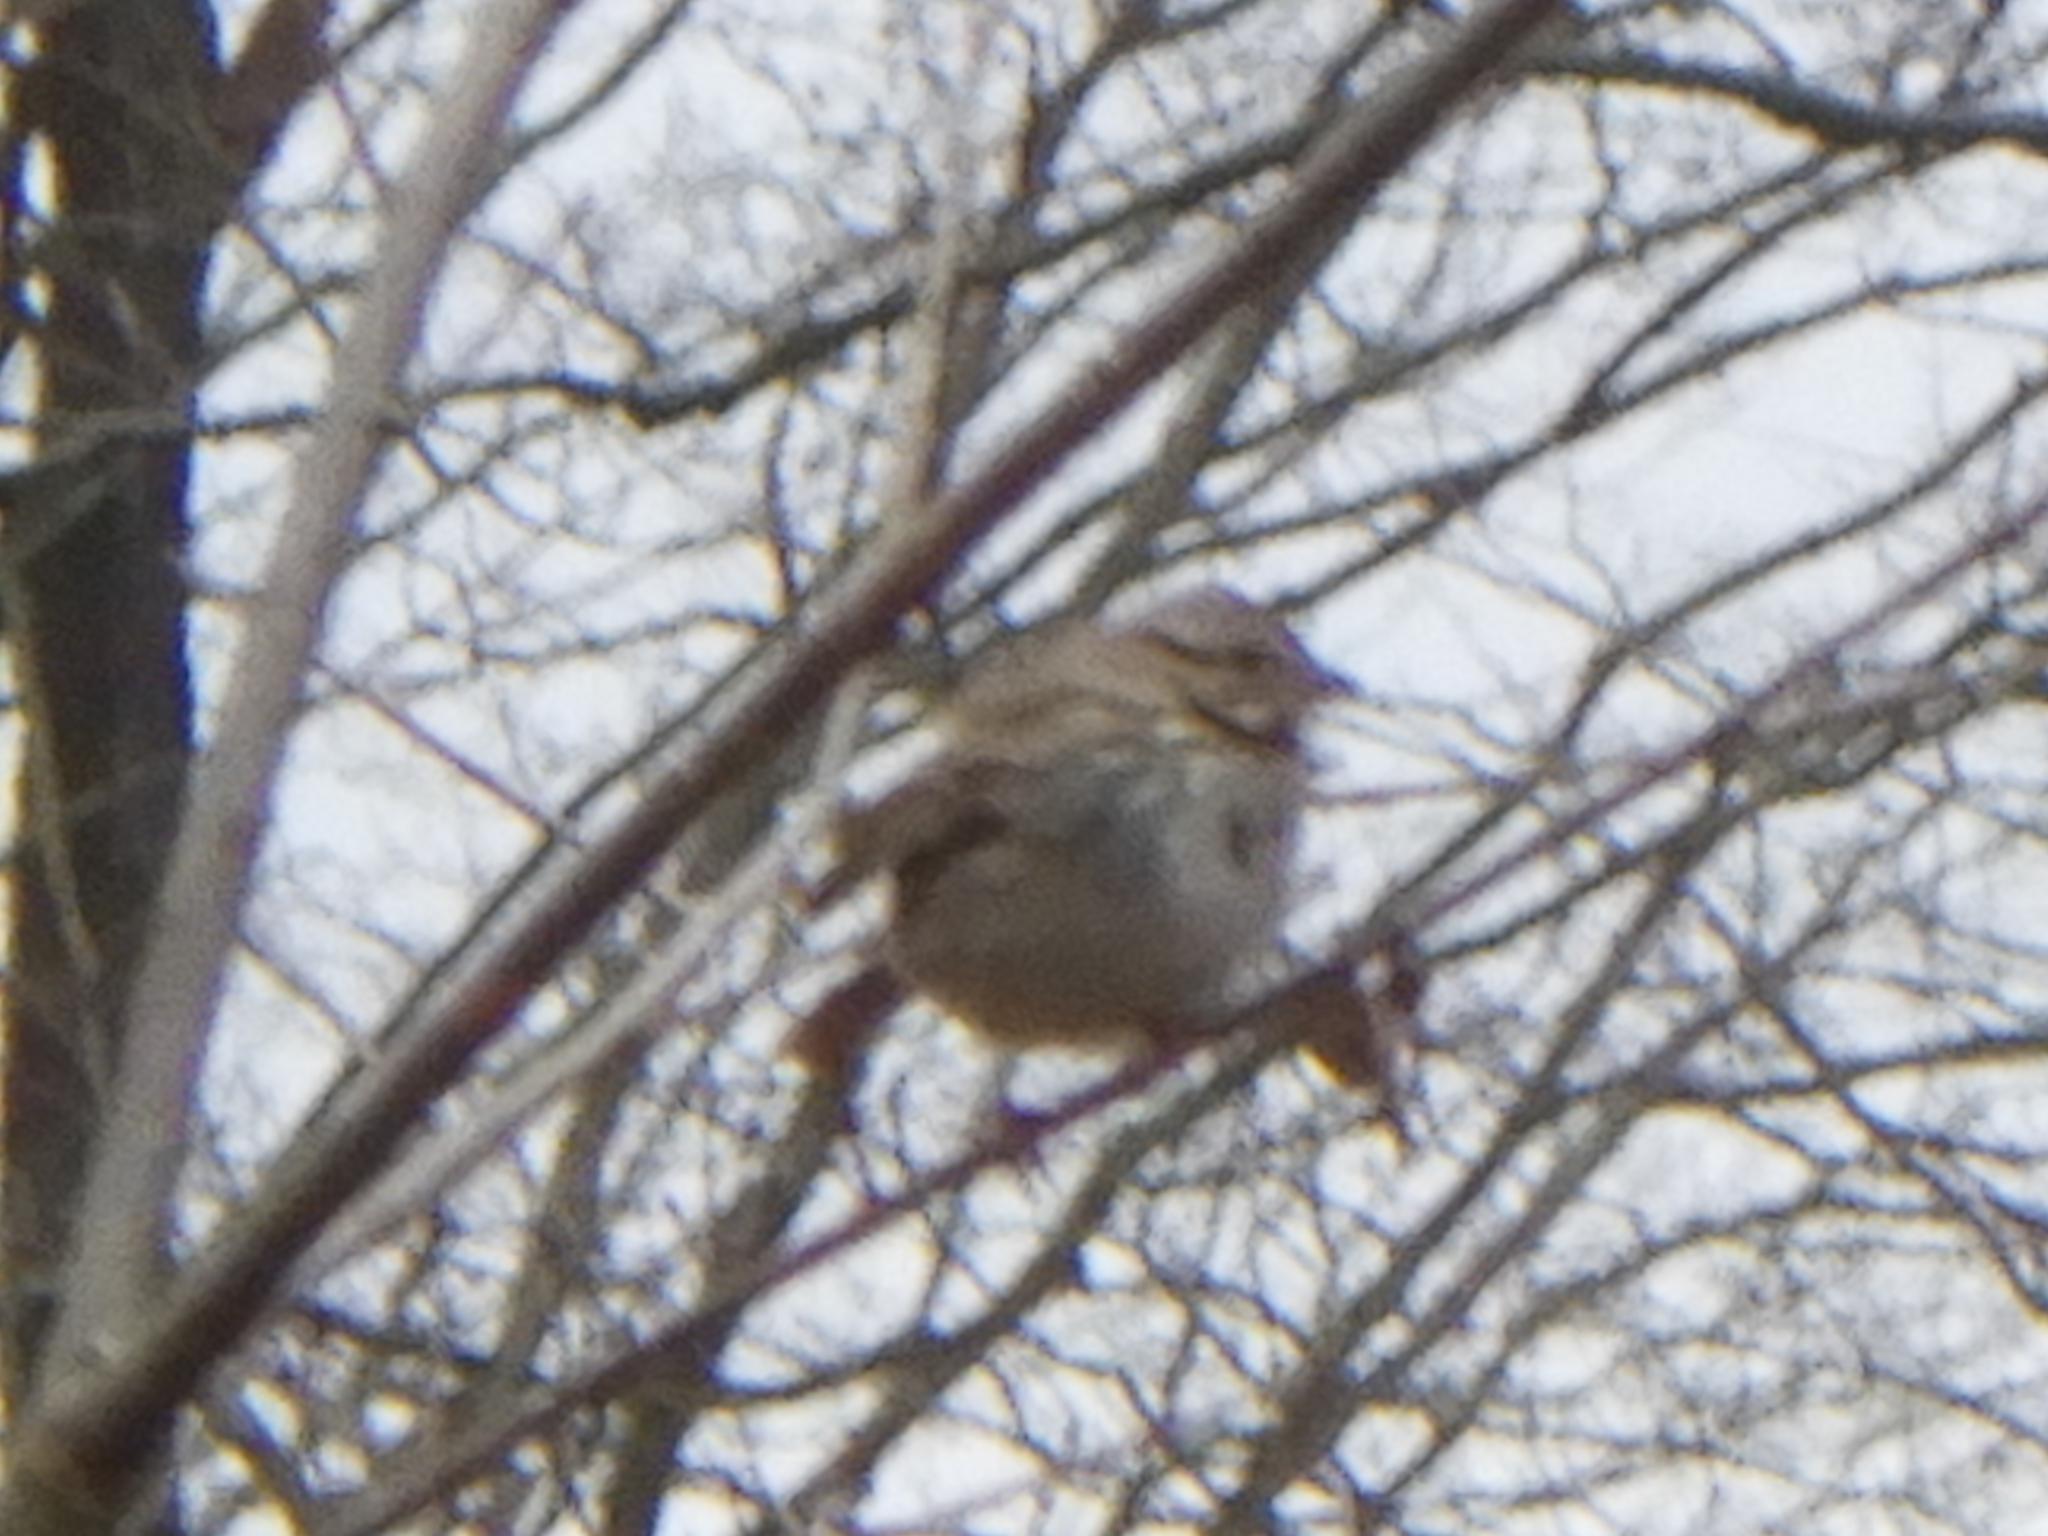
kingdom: Animalia
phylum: Chordata
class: Aves
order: Passeriformes
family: Passerellidae
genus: Melospiza
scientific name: Melospiza melodia
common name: Song sparrow
